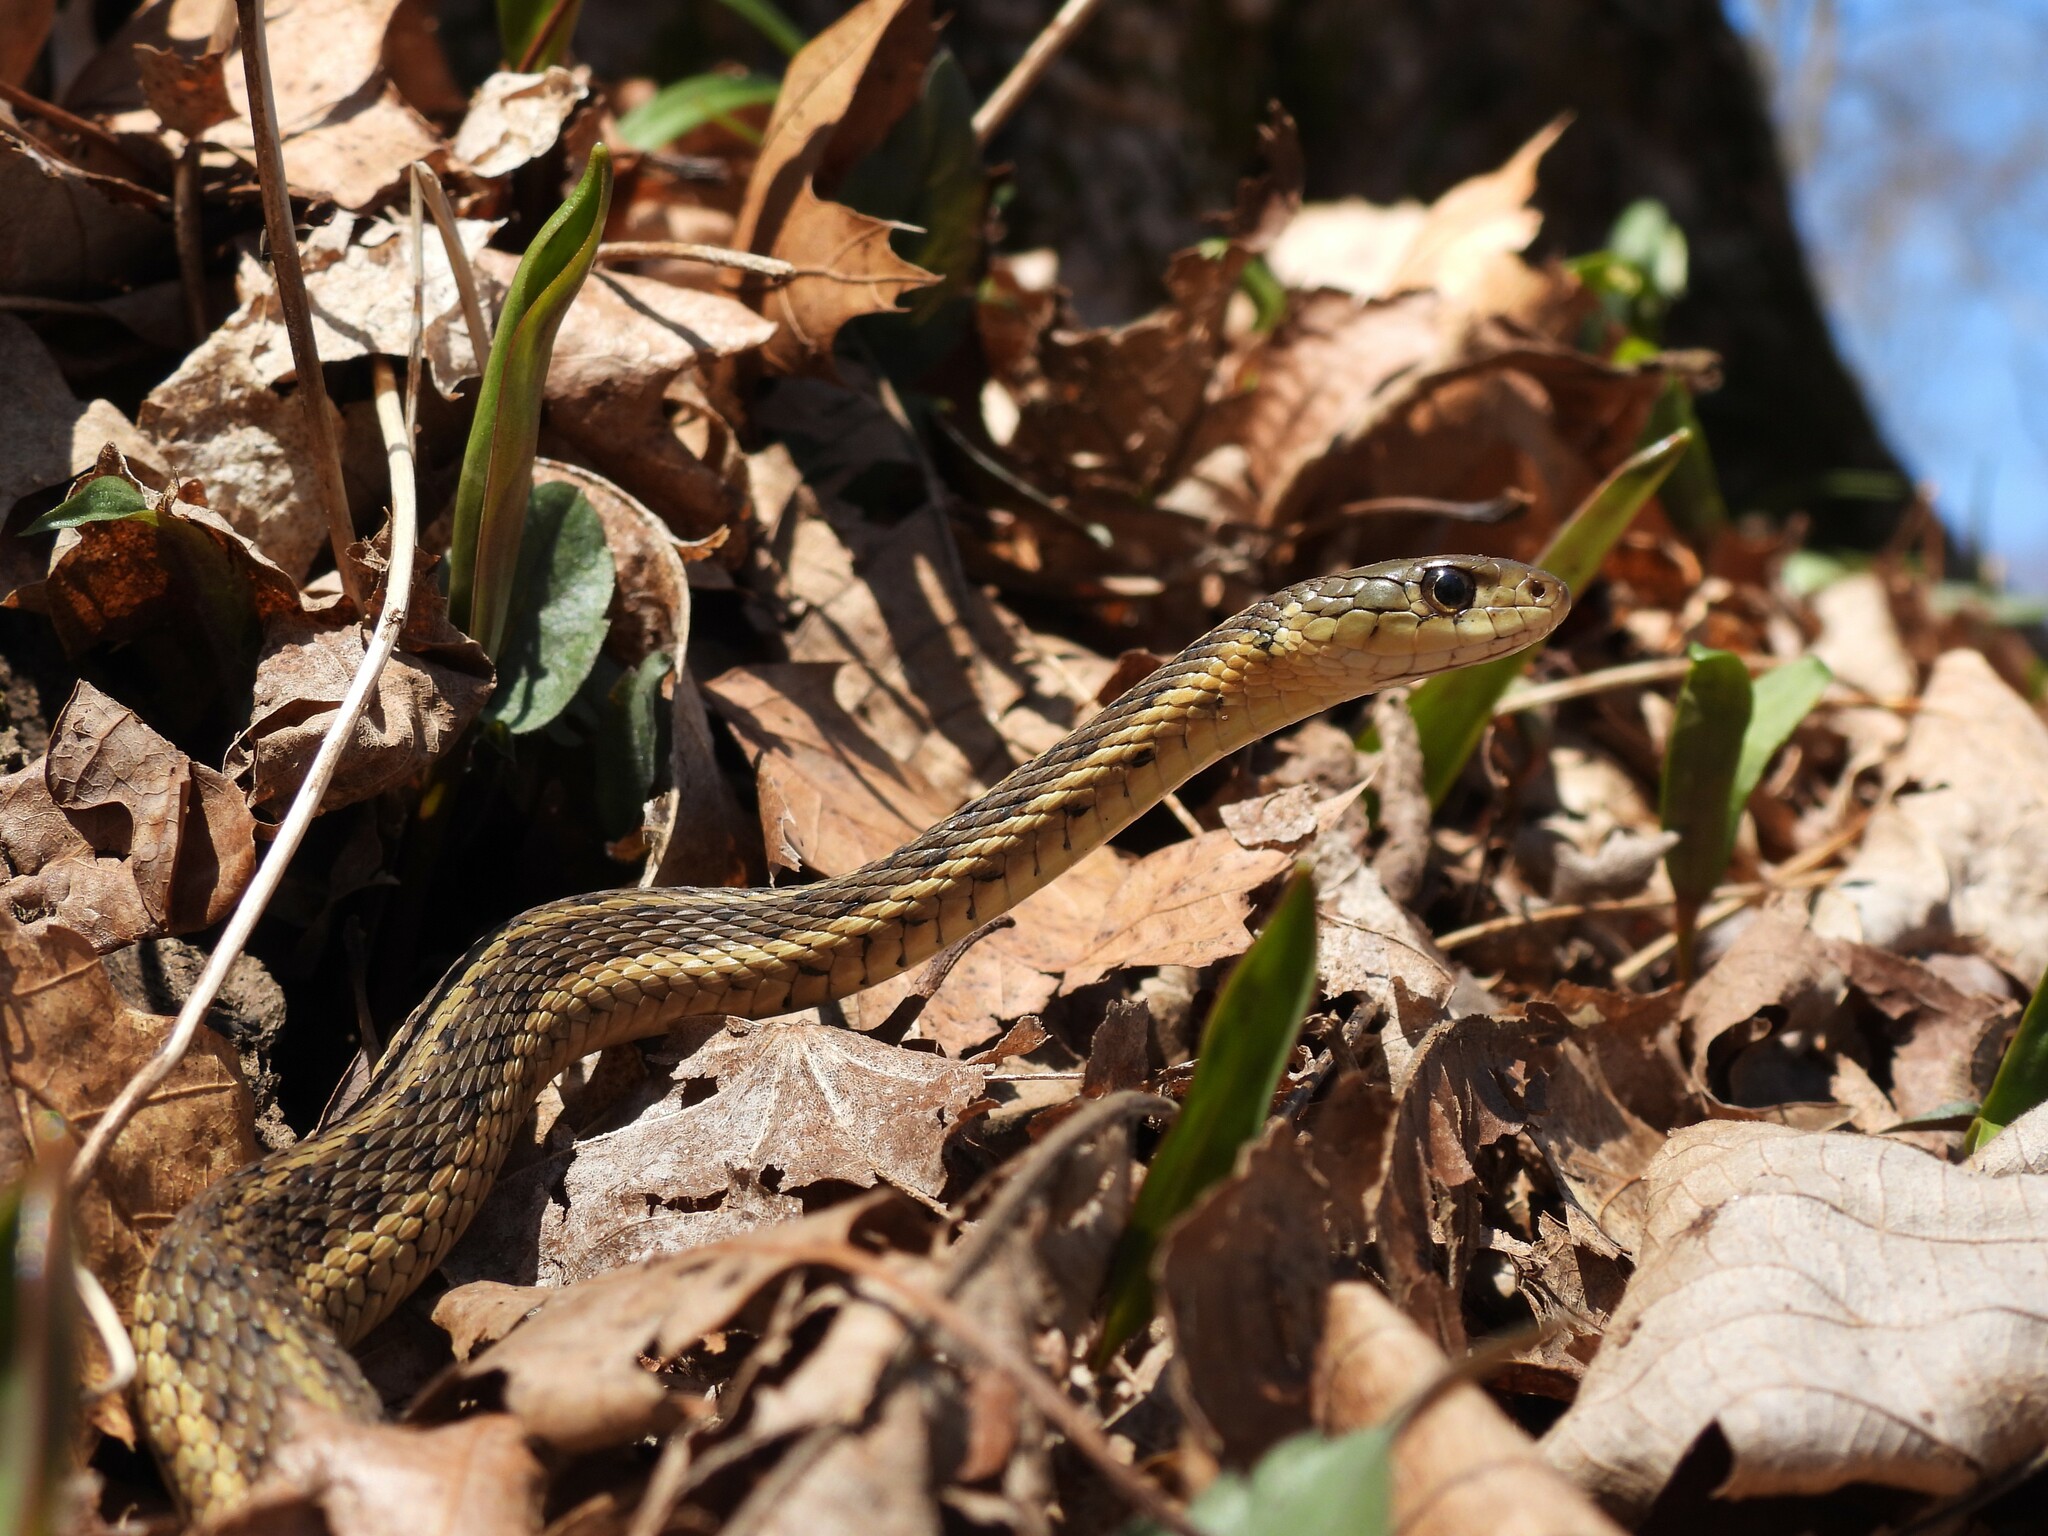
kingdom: Animalia
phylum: Chordata
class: Squamata
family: Colubridae
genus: Thamnophis
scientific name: Thamnophis sirtalis
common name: Common garter snake
